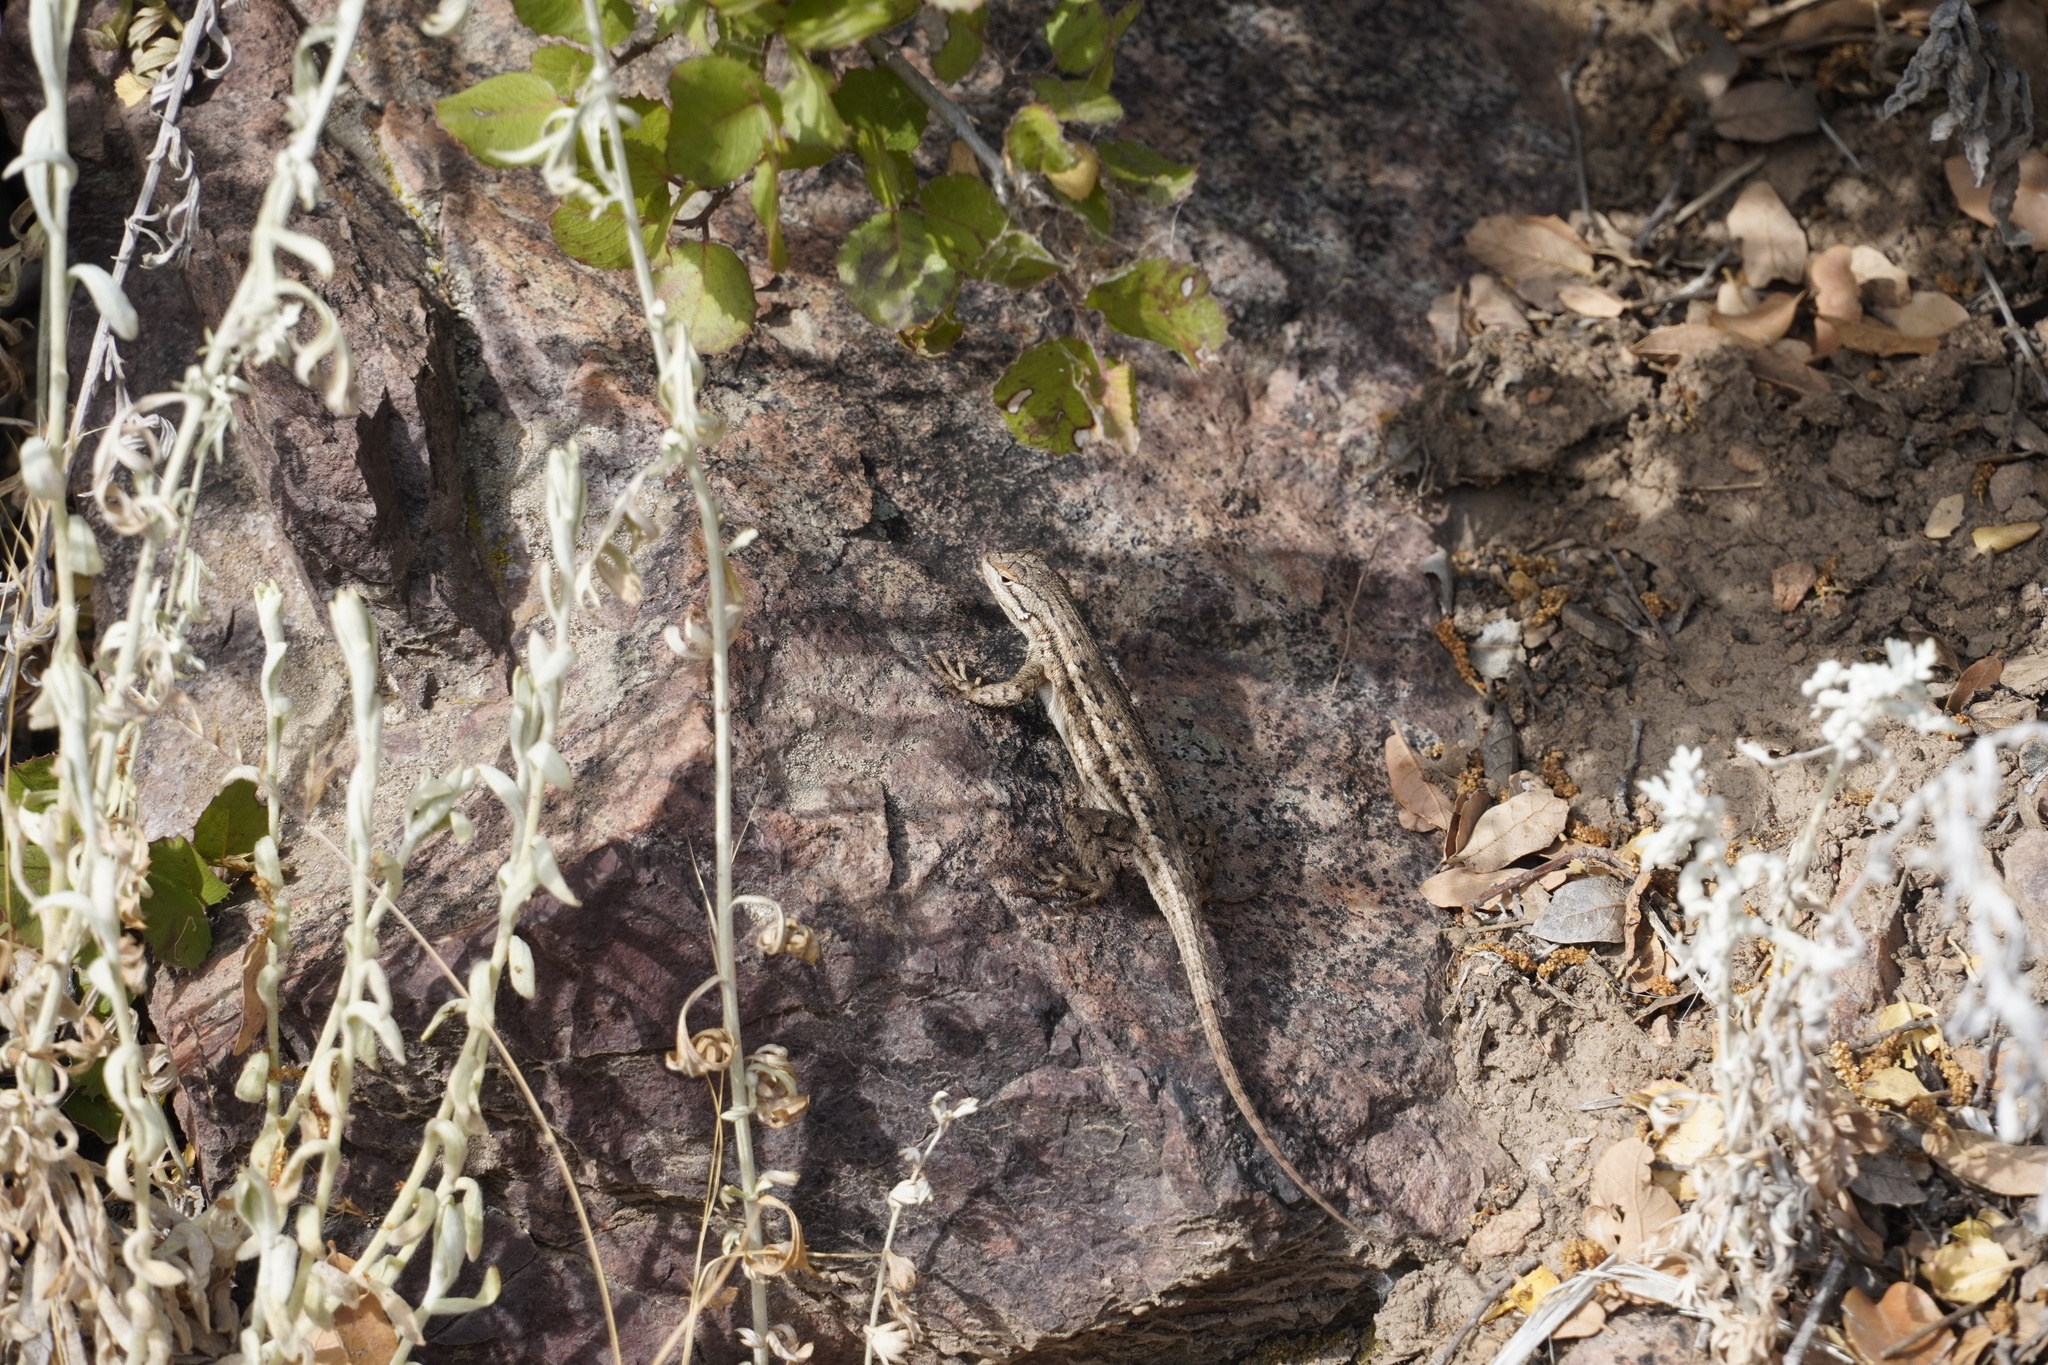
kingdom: Animalia
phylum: Chordata
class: Squamata
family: Phrynosomatidae
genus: Sceloporus
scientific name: Sceloporus tristichus
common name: Plateau fence lizard
